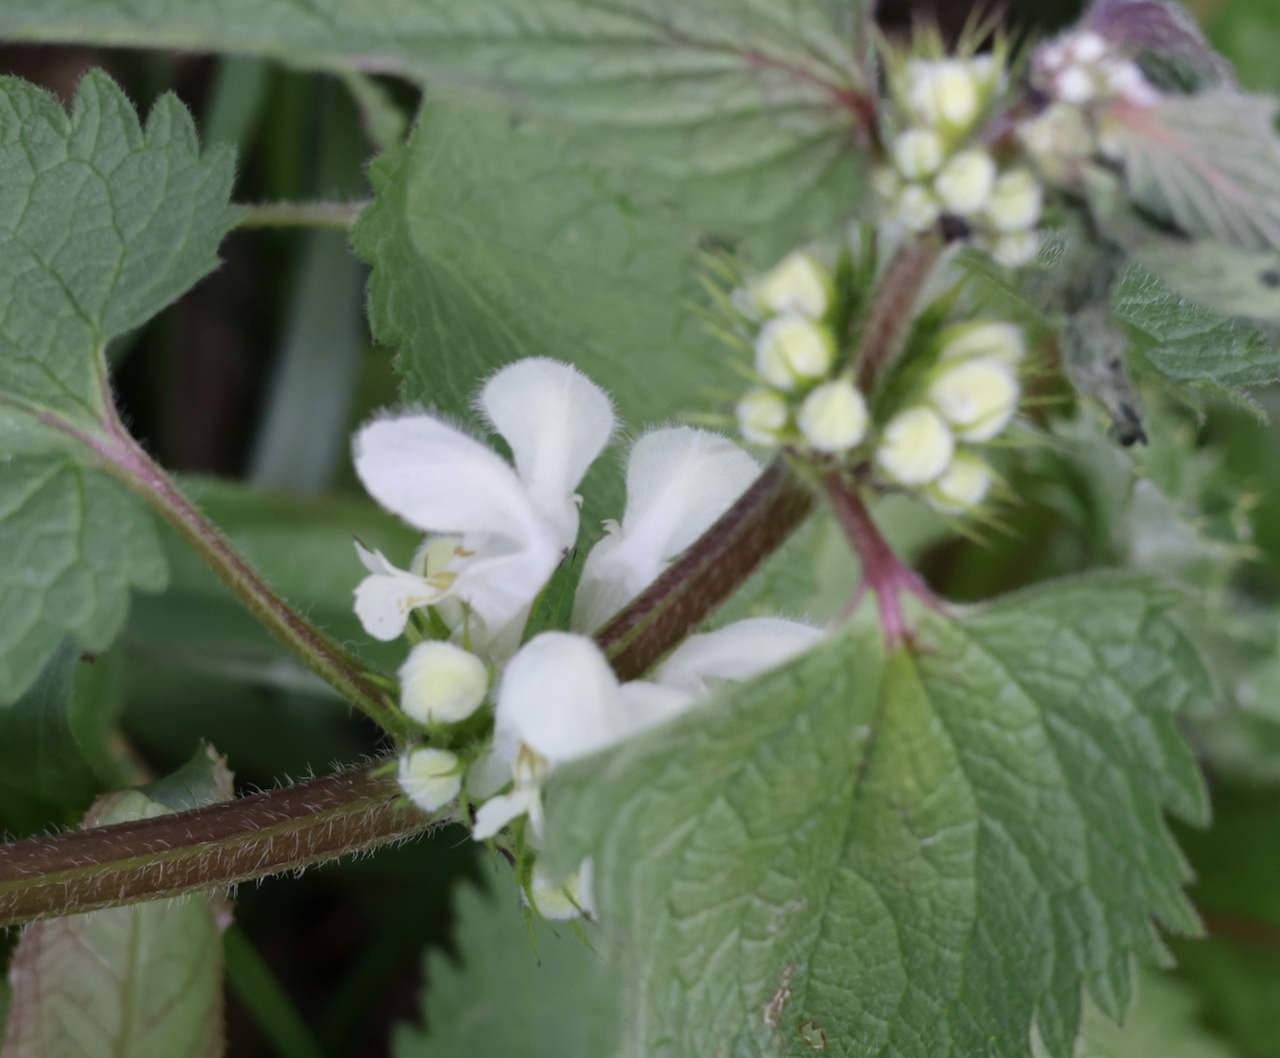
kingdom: Plantae
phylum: Tracheophyta
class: Magnoliopsida
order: Lamiales
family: Lamiaceae
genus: Lamium
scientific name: Lamium album
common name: White dead-nettle
